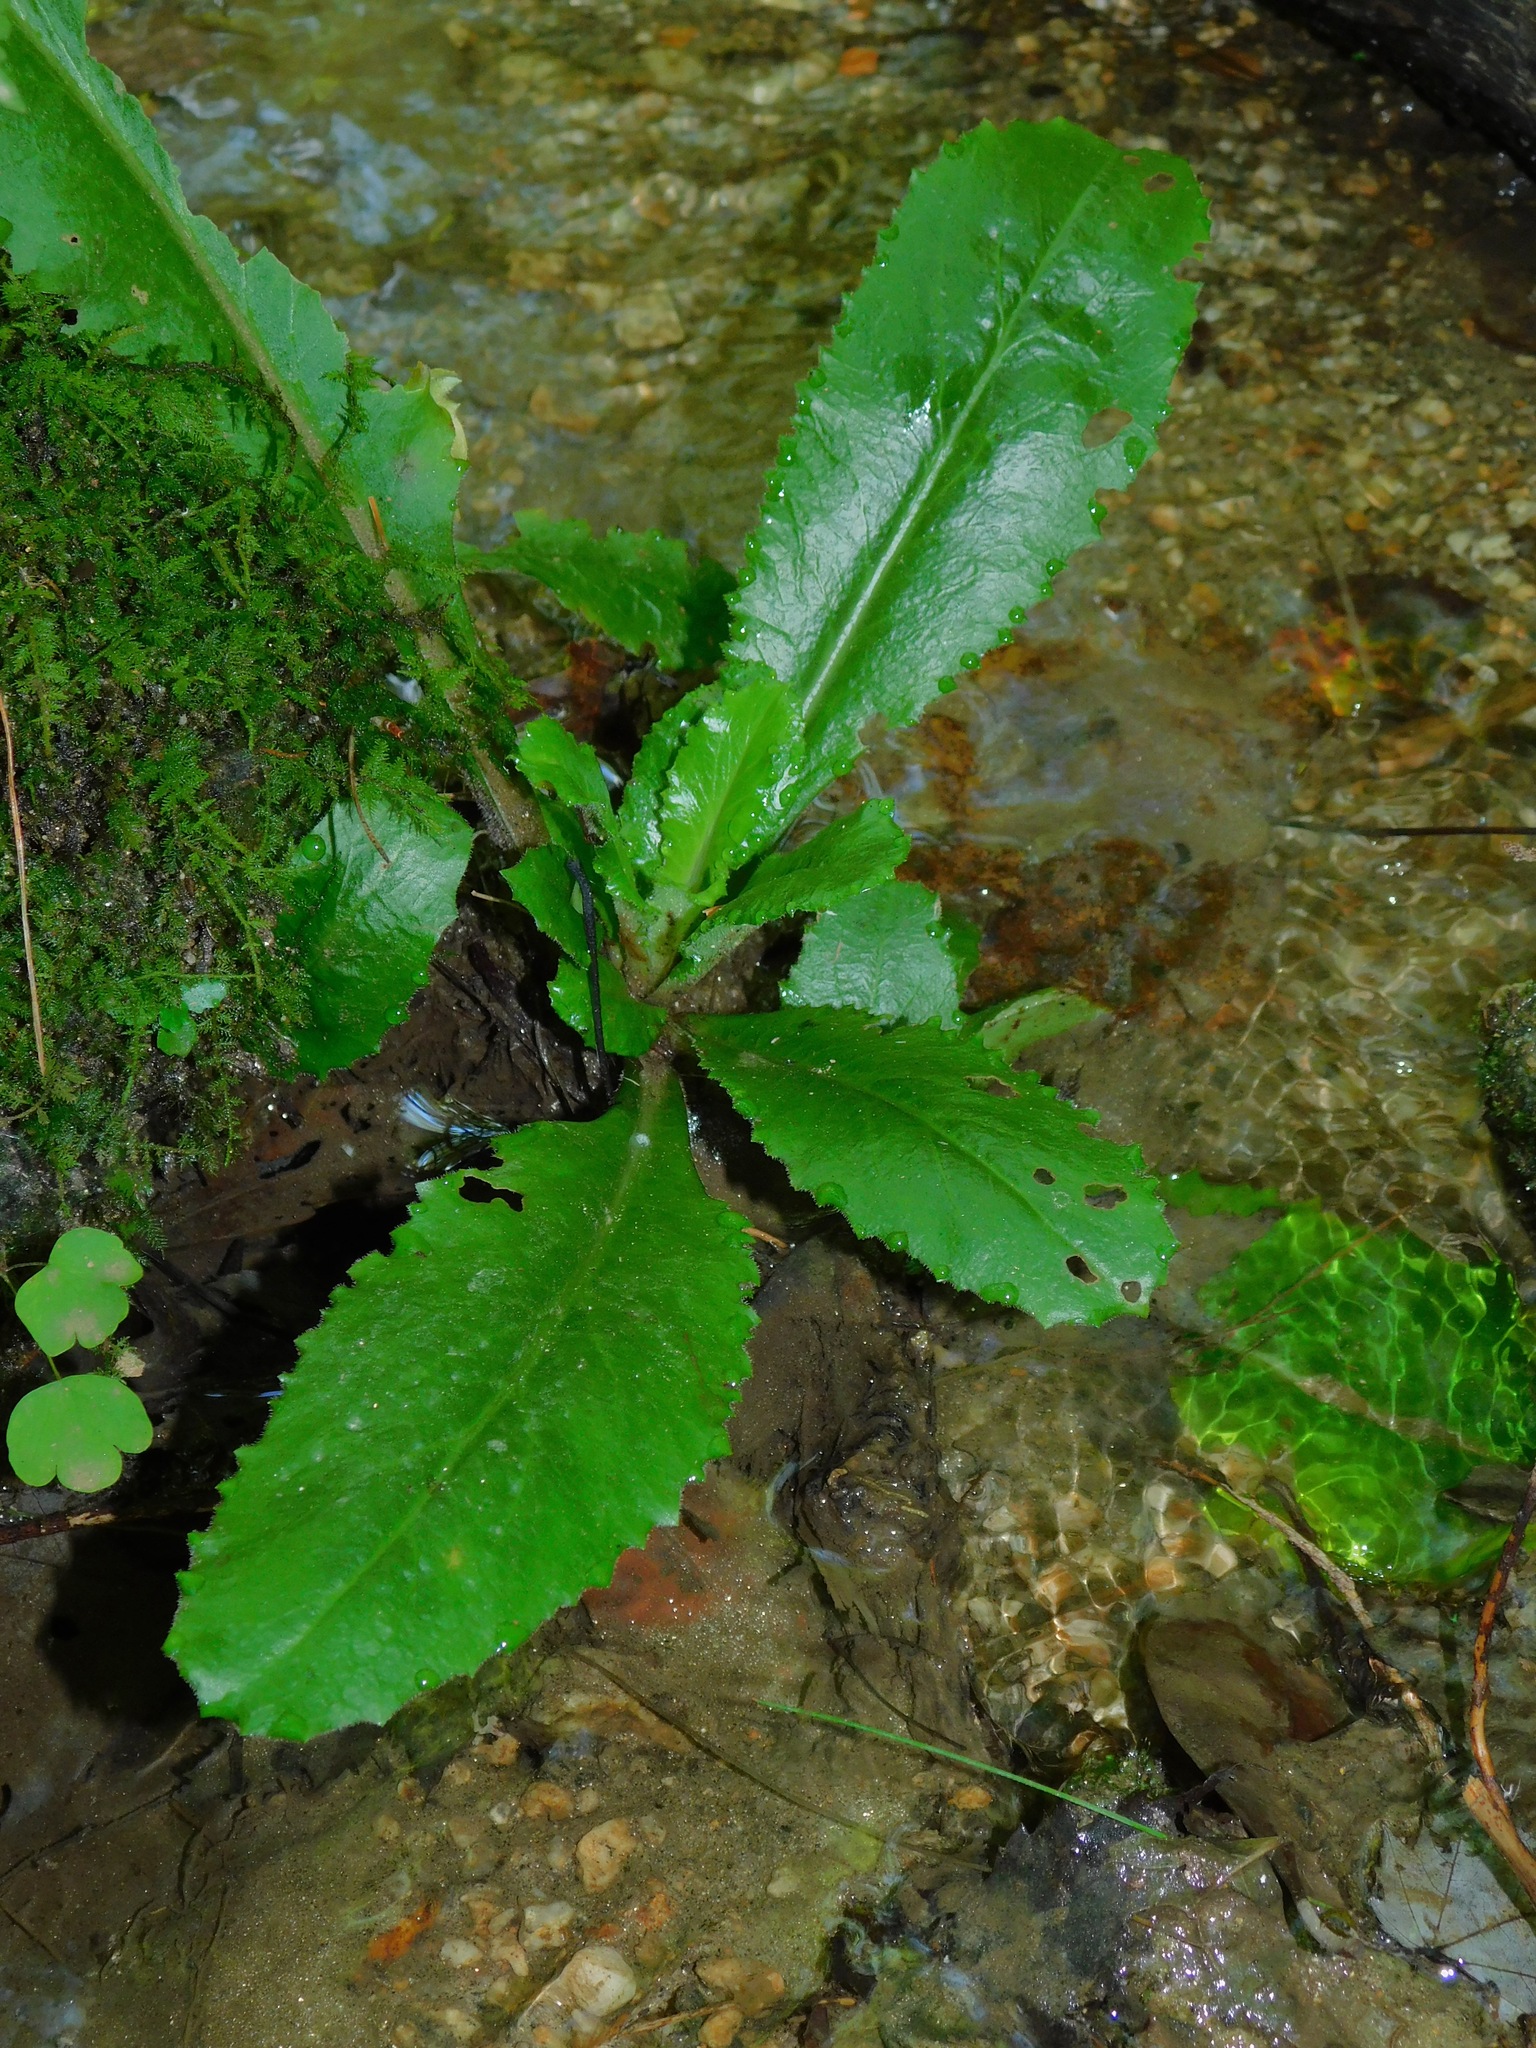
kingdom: Plantae
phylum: Tracheophyta
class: Magnoliopsida
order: Saxifragales
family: Saxifragaceae
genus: Micranthes
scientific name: Micranthes micranthidifolia
